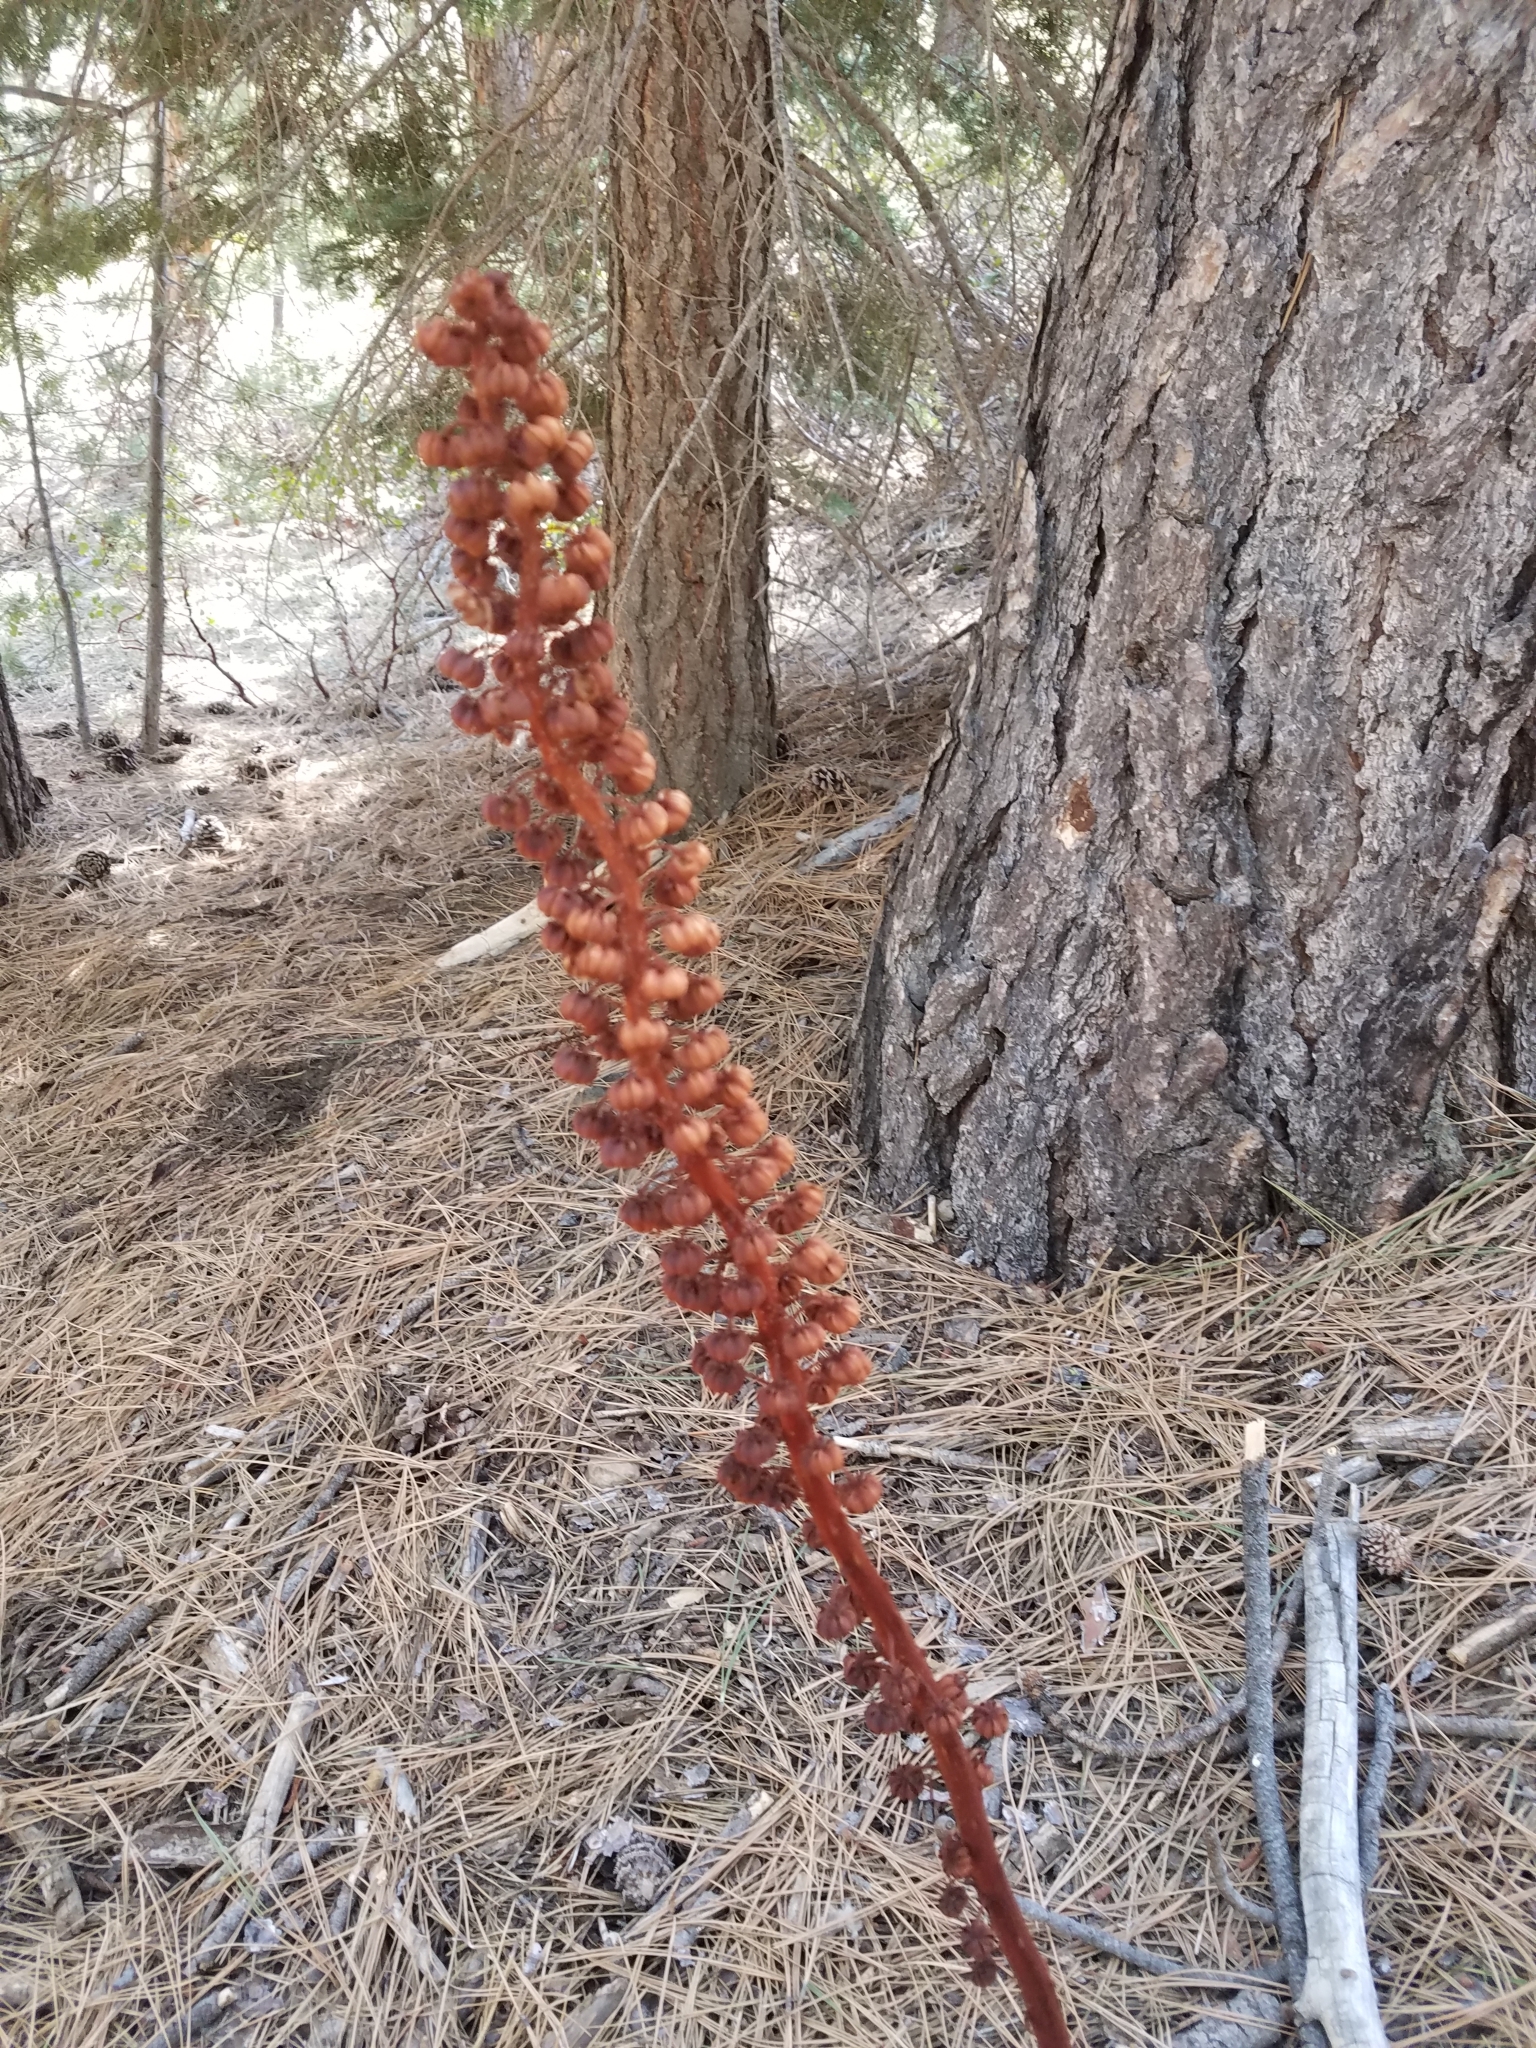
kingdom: Plantae
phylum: Tracheophyta
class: Magnoliopsida
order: Ericales
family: Ericaceae
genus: Pterospora
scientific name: Pterospora andromedea
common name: Giant bird's-nest
